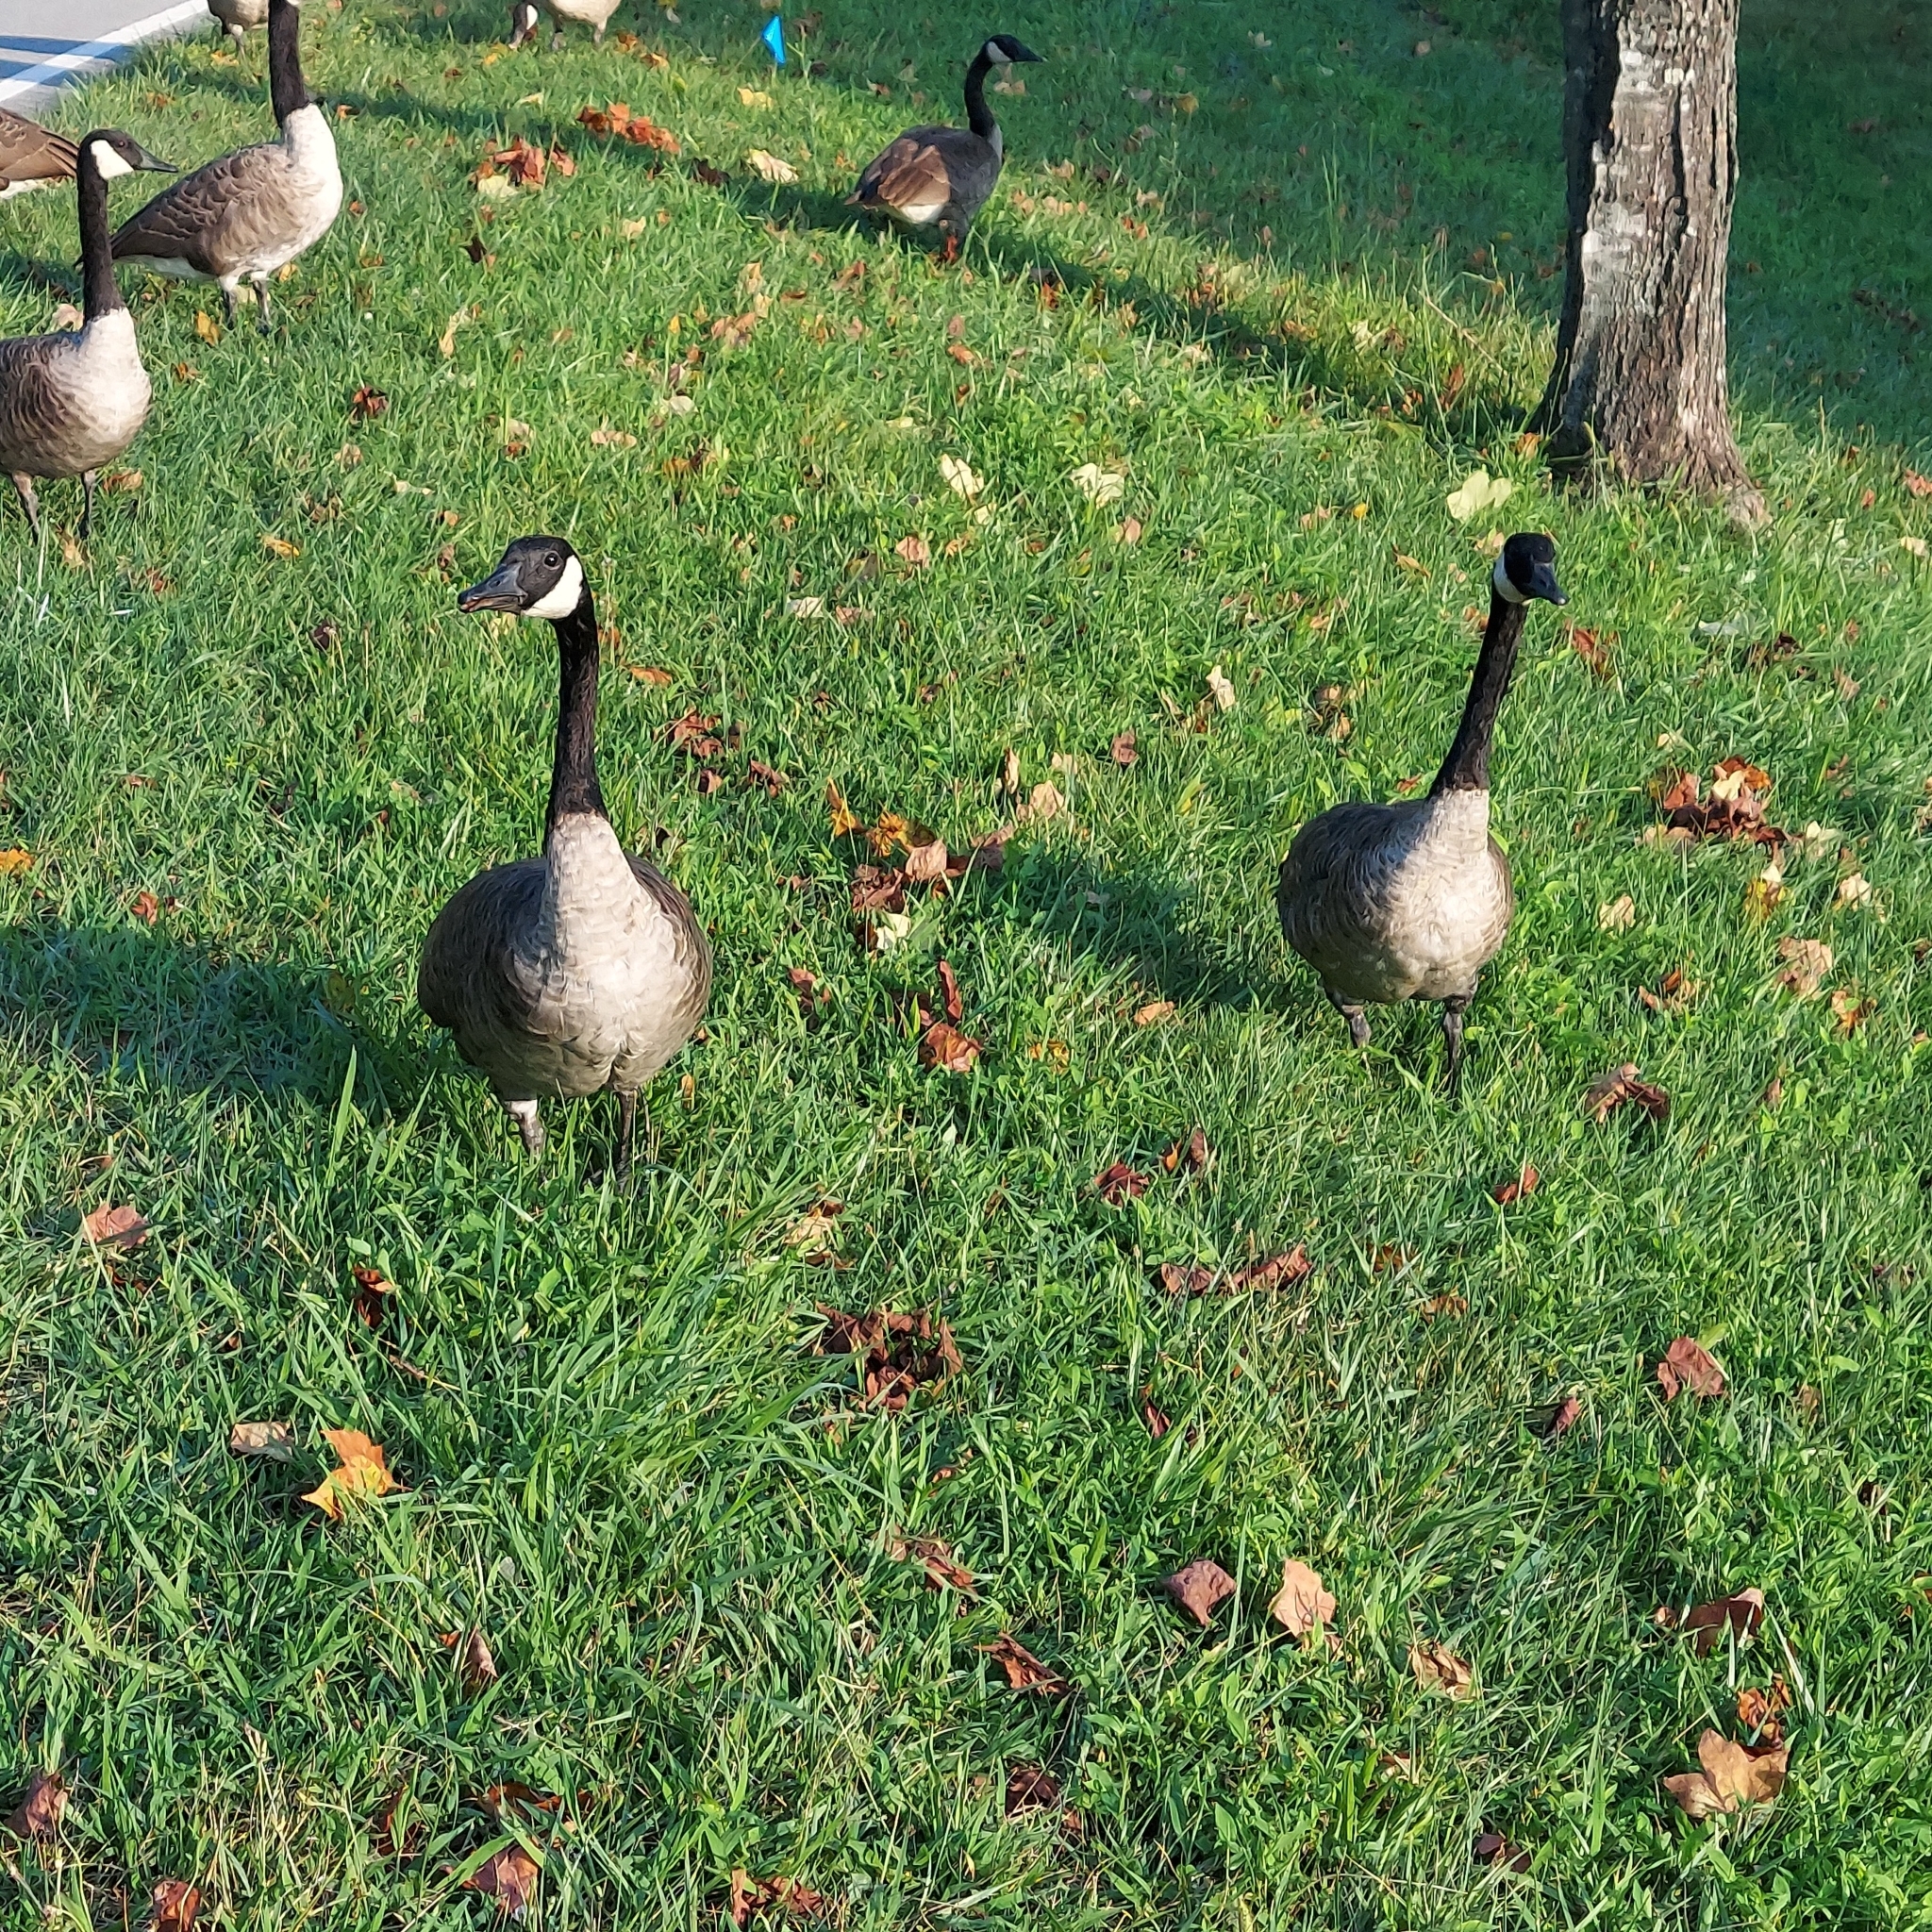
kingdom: Animalia
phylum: Chordata
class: Aves
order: Anseriformes
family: Anatidae
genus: Branta
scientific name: Branta canadensis
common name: Canada goose
